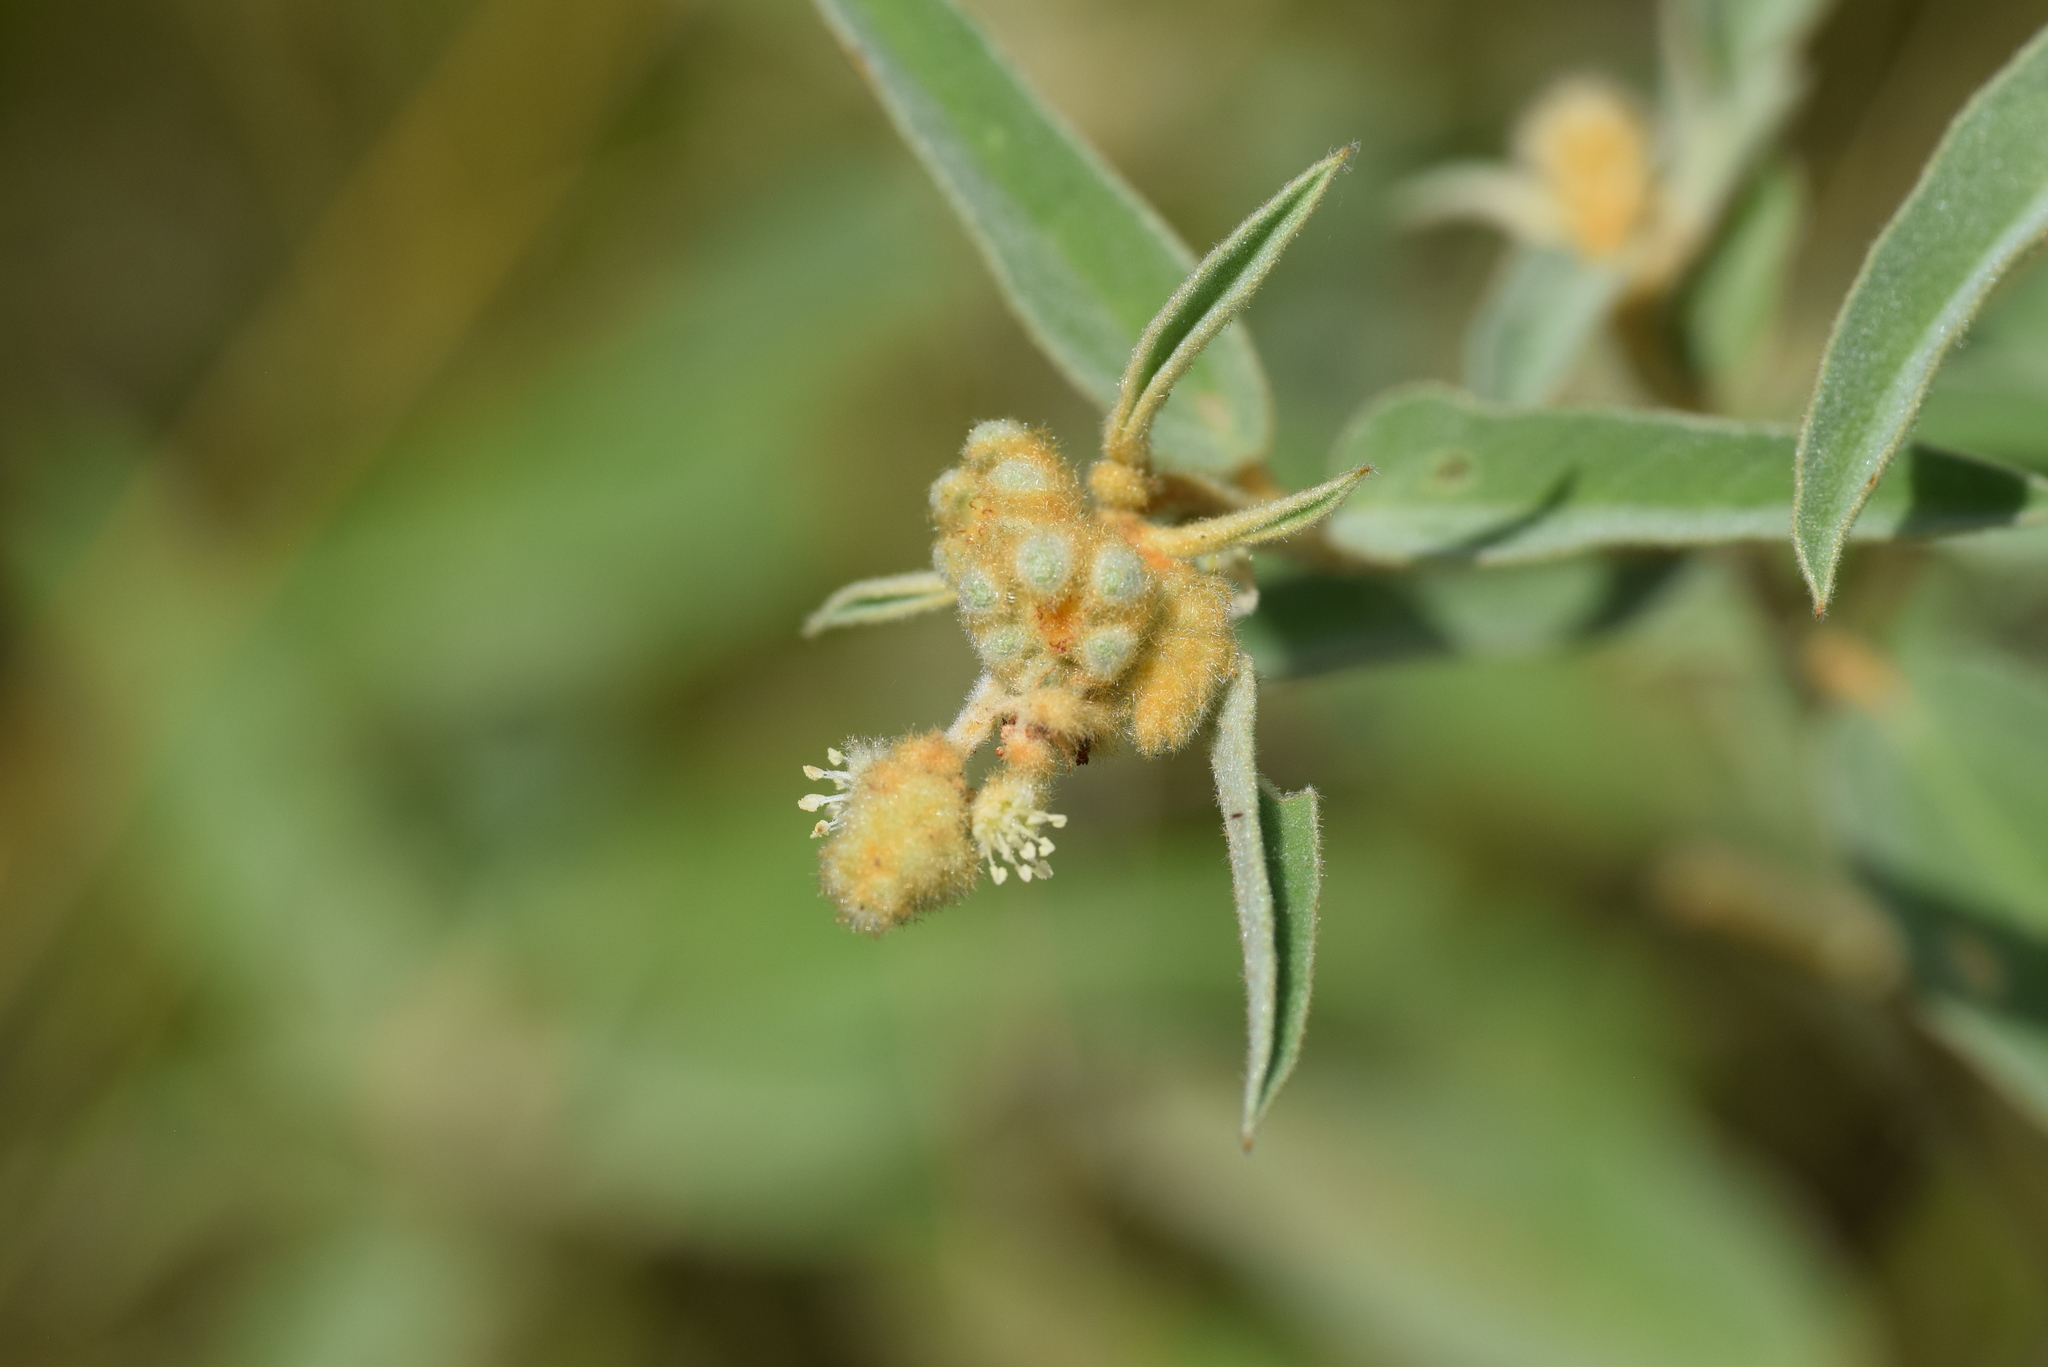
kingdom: Plantae
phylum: Tracheophyta
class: Magnoliopsida
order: Malpighiales
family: Euphorbiaceae
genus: Croton
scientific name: Croton lindheimeri
